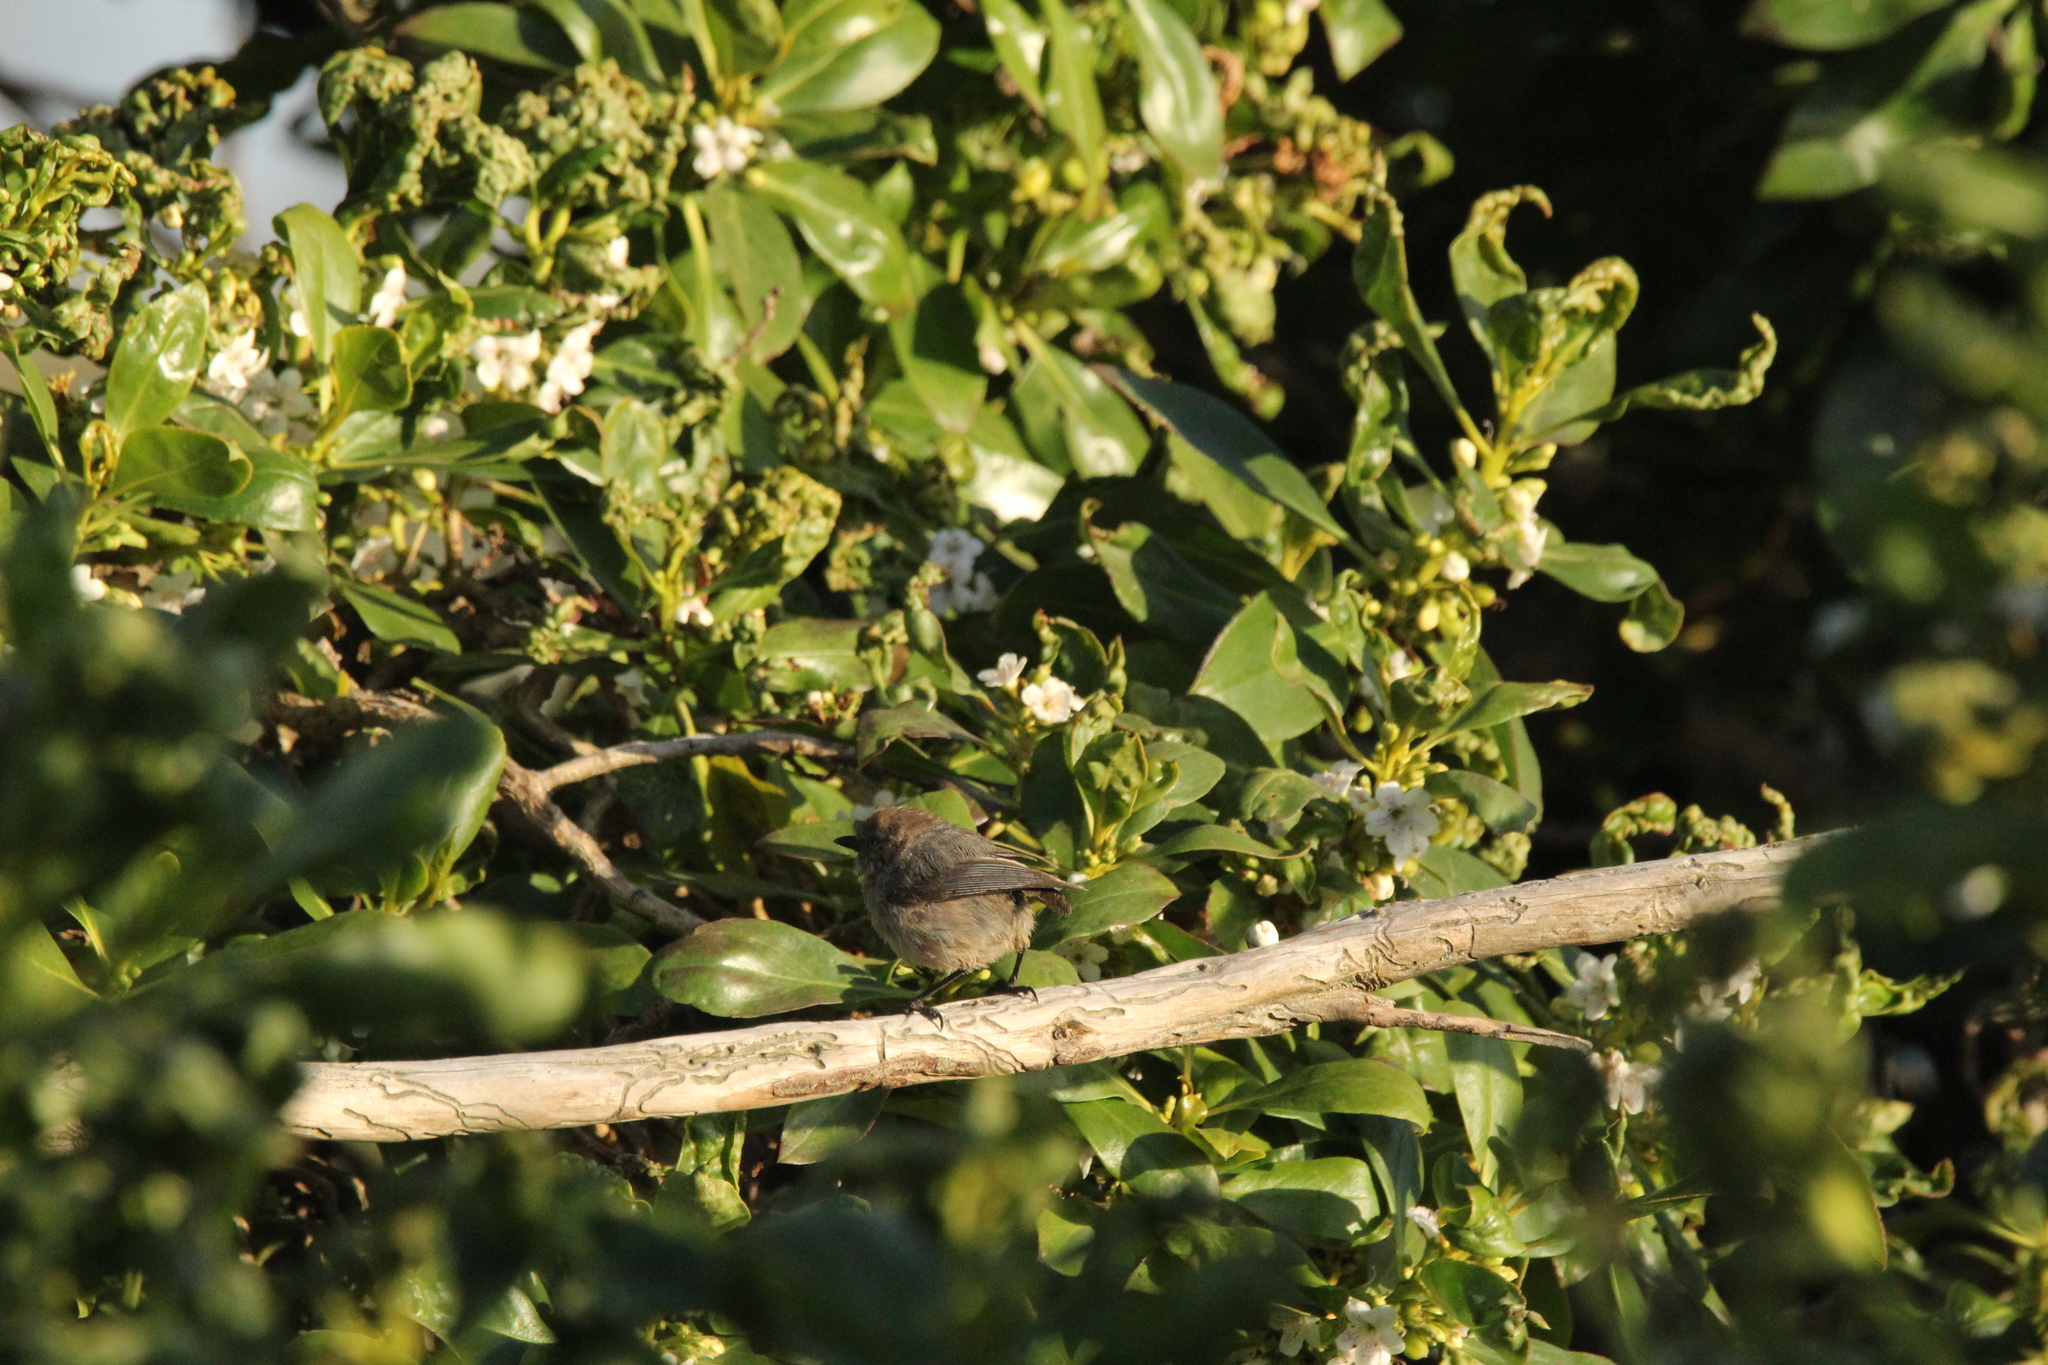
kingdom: Animalia
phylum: Chordata
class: Aves
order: Passeriformes
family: Aegithalidae
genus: Psaltriparus
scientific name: Psaltriparus minimus
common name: American bushtit
